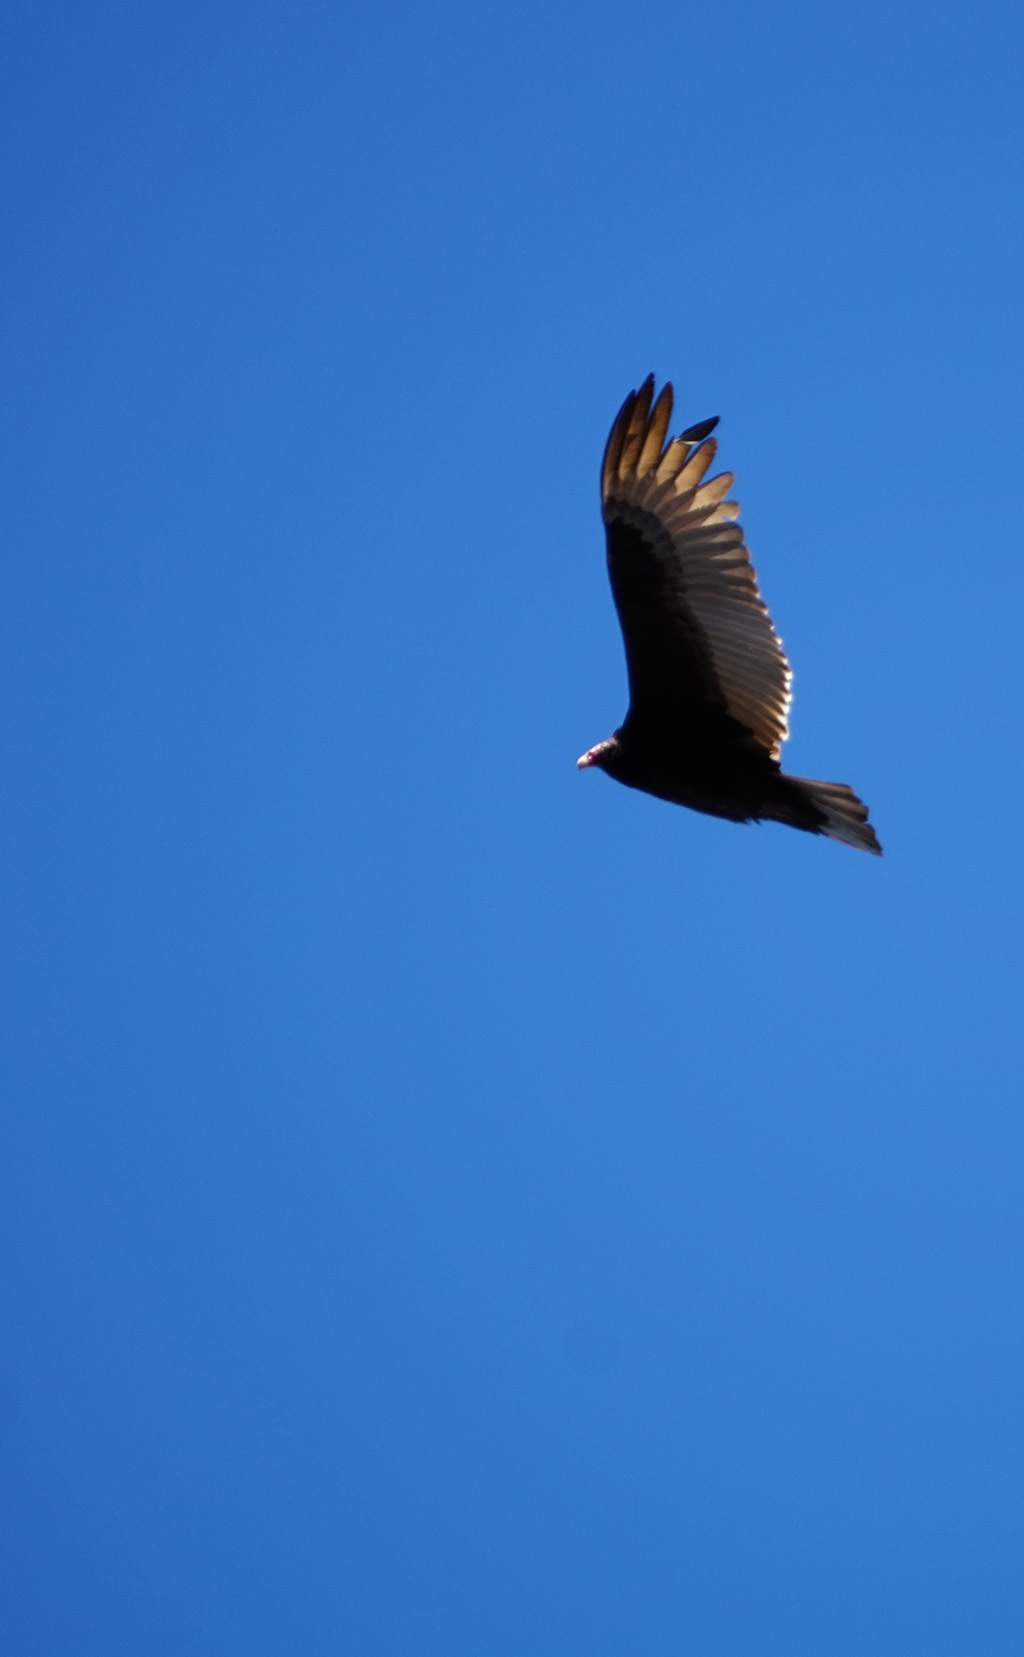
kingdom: Animalia
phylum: Chordata
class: Aves
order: Accipitriformes
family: Cathartidae
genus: Cathartes
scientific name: Cathartes aura
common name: Turkey vulture
